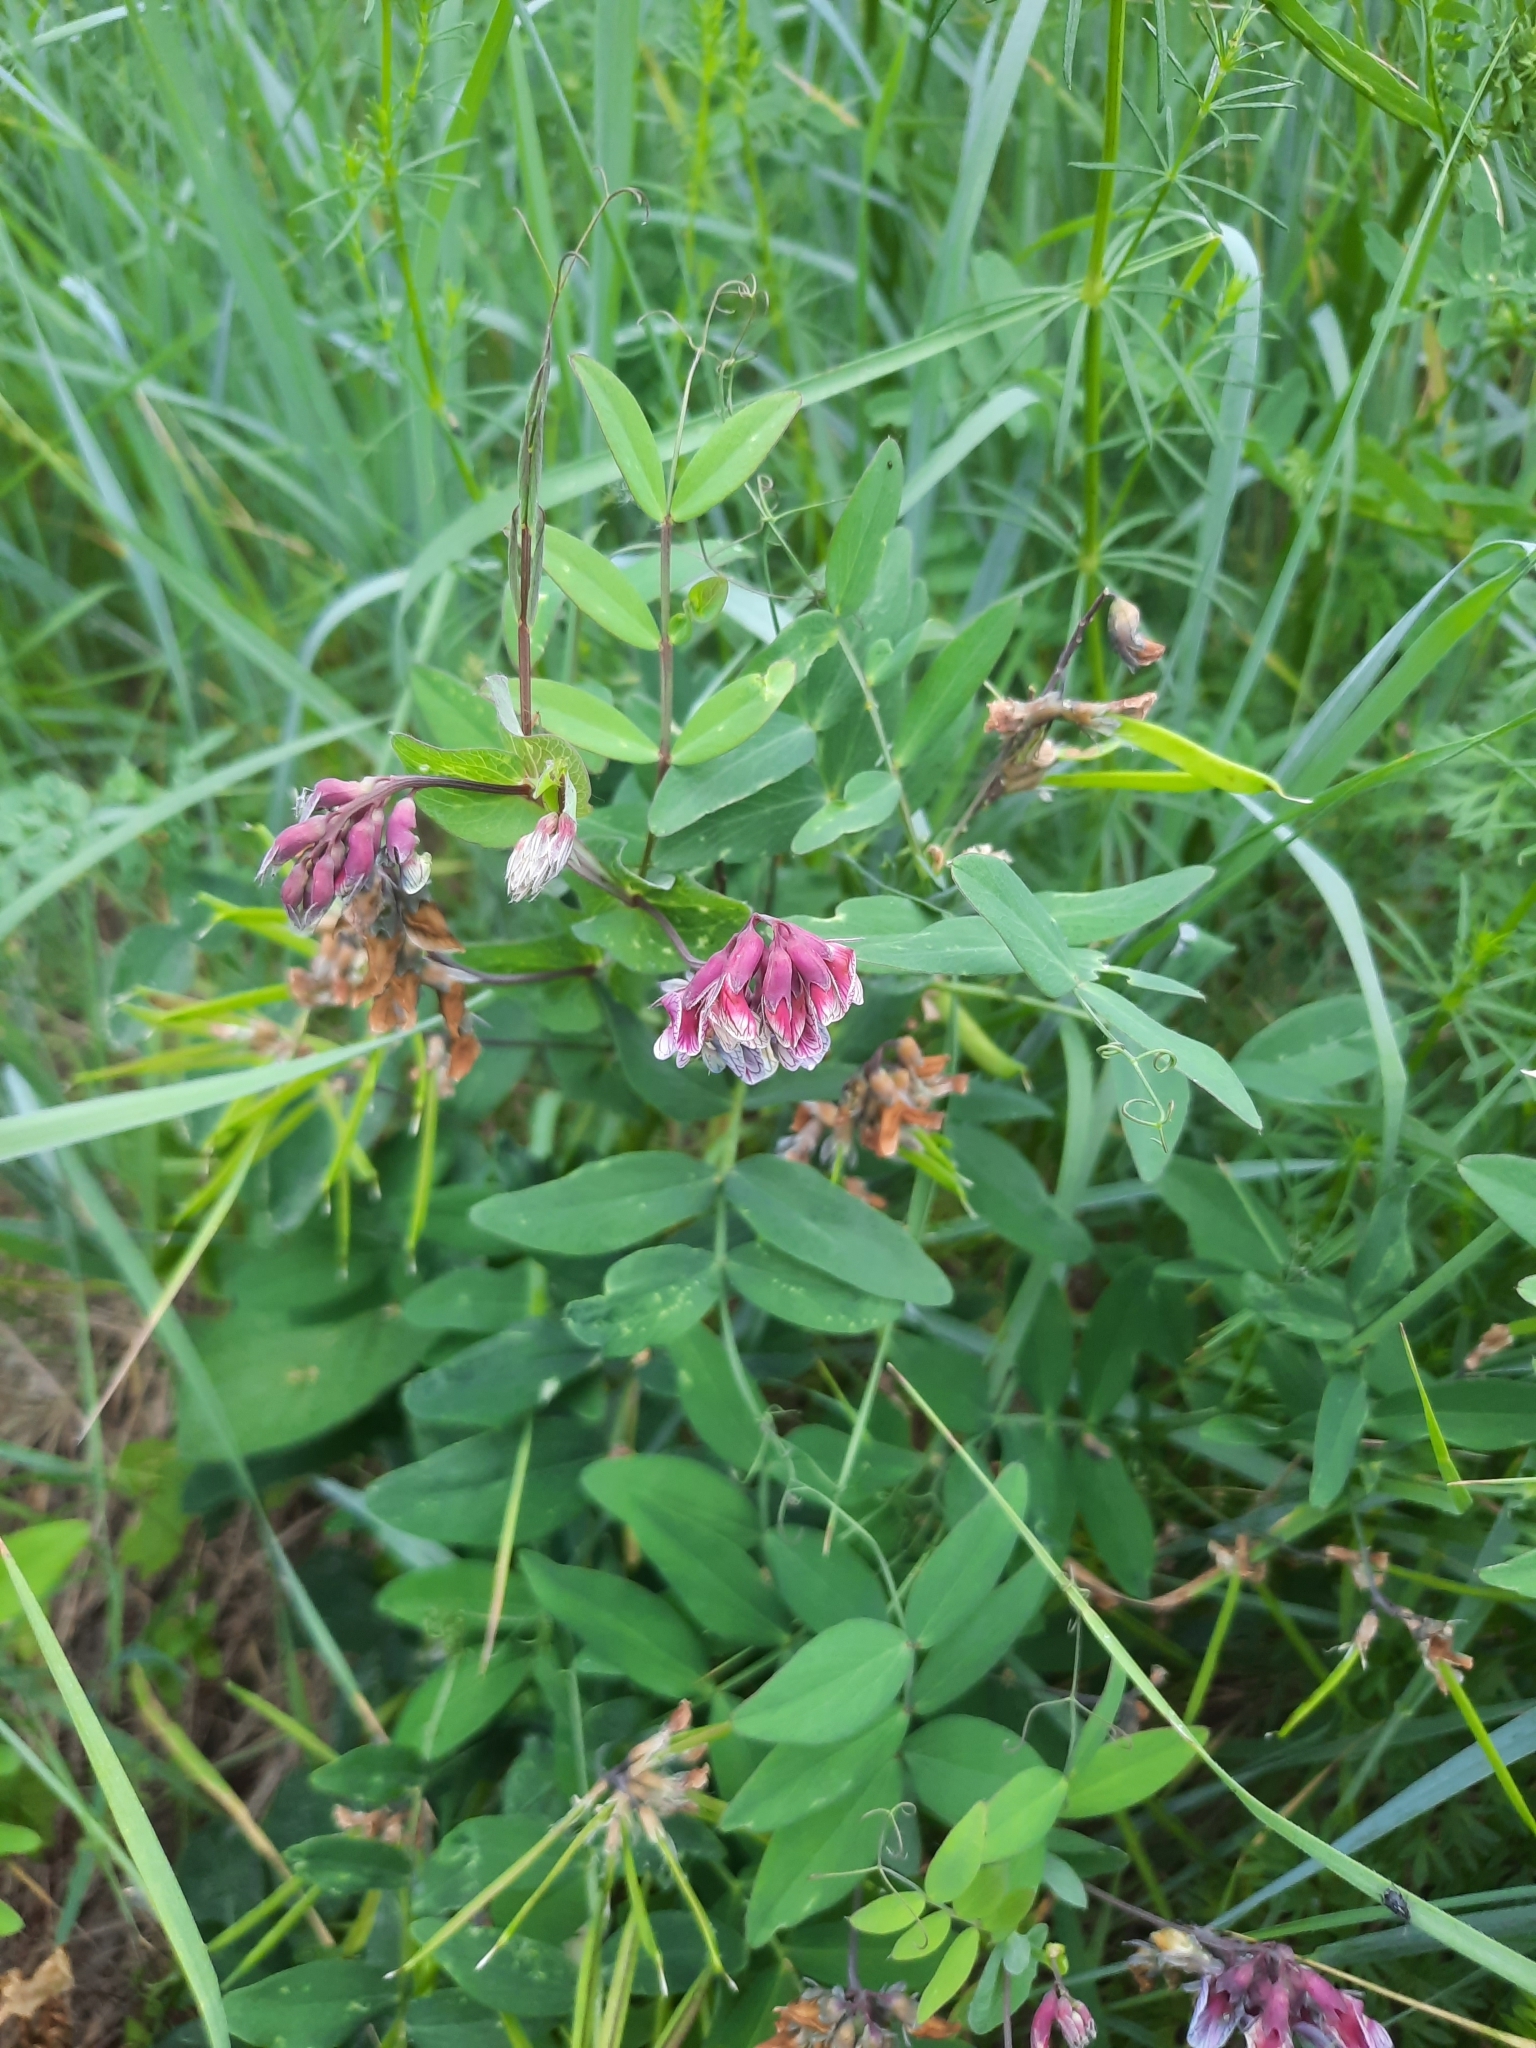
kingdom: Plantae
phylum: Tracheophyta
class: Magnoliopsida
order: Fabales
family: Fabaceae
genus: Lathyrus
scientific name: Lathyrus pisiformis
